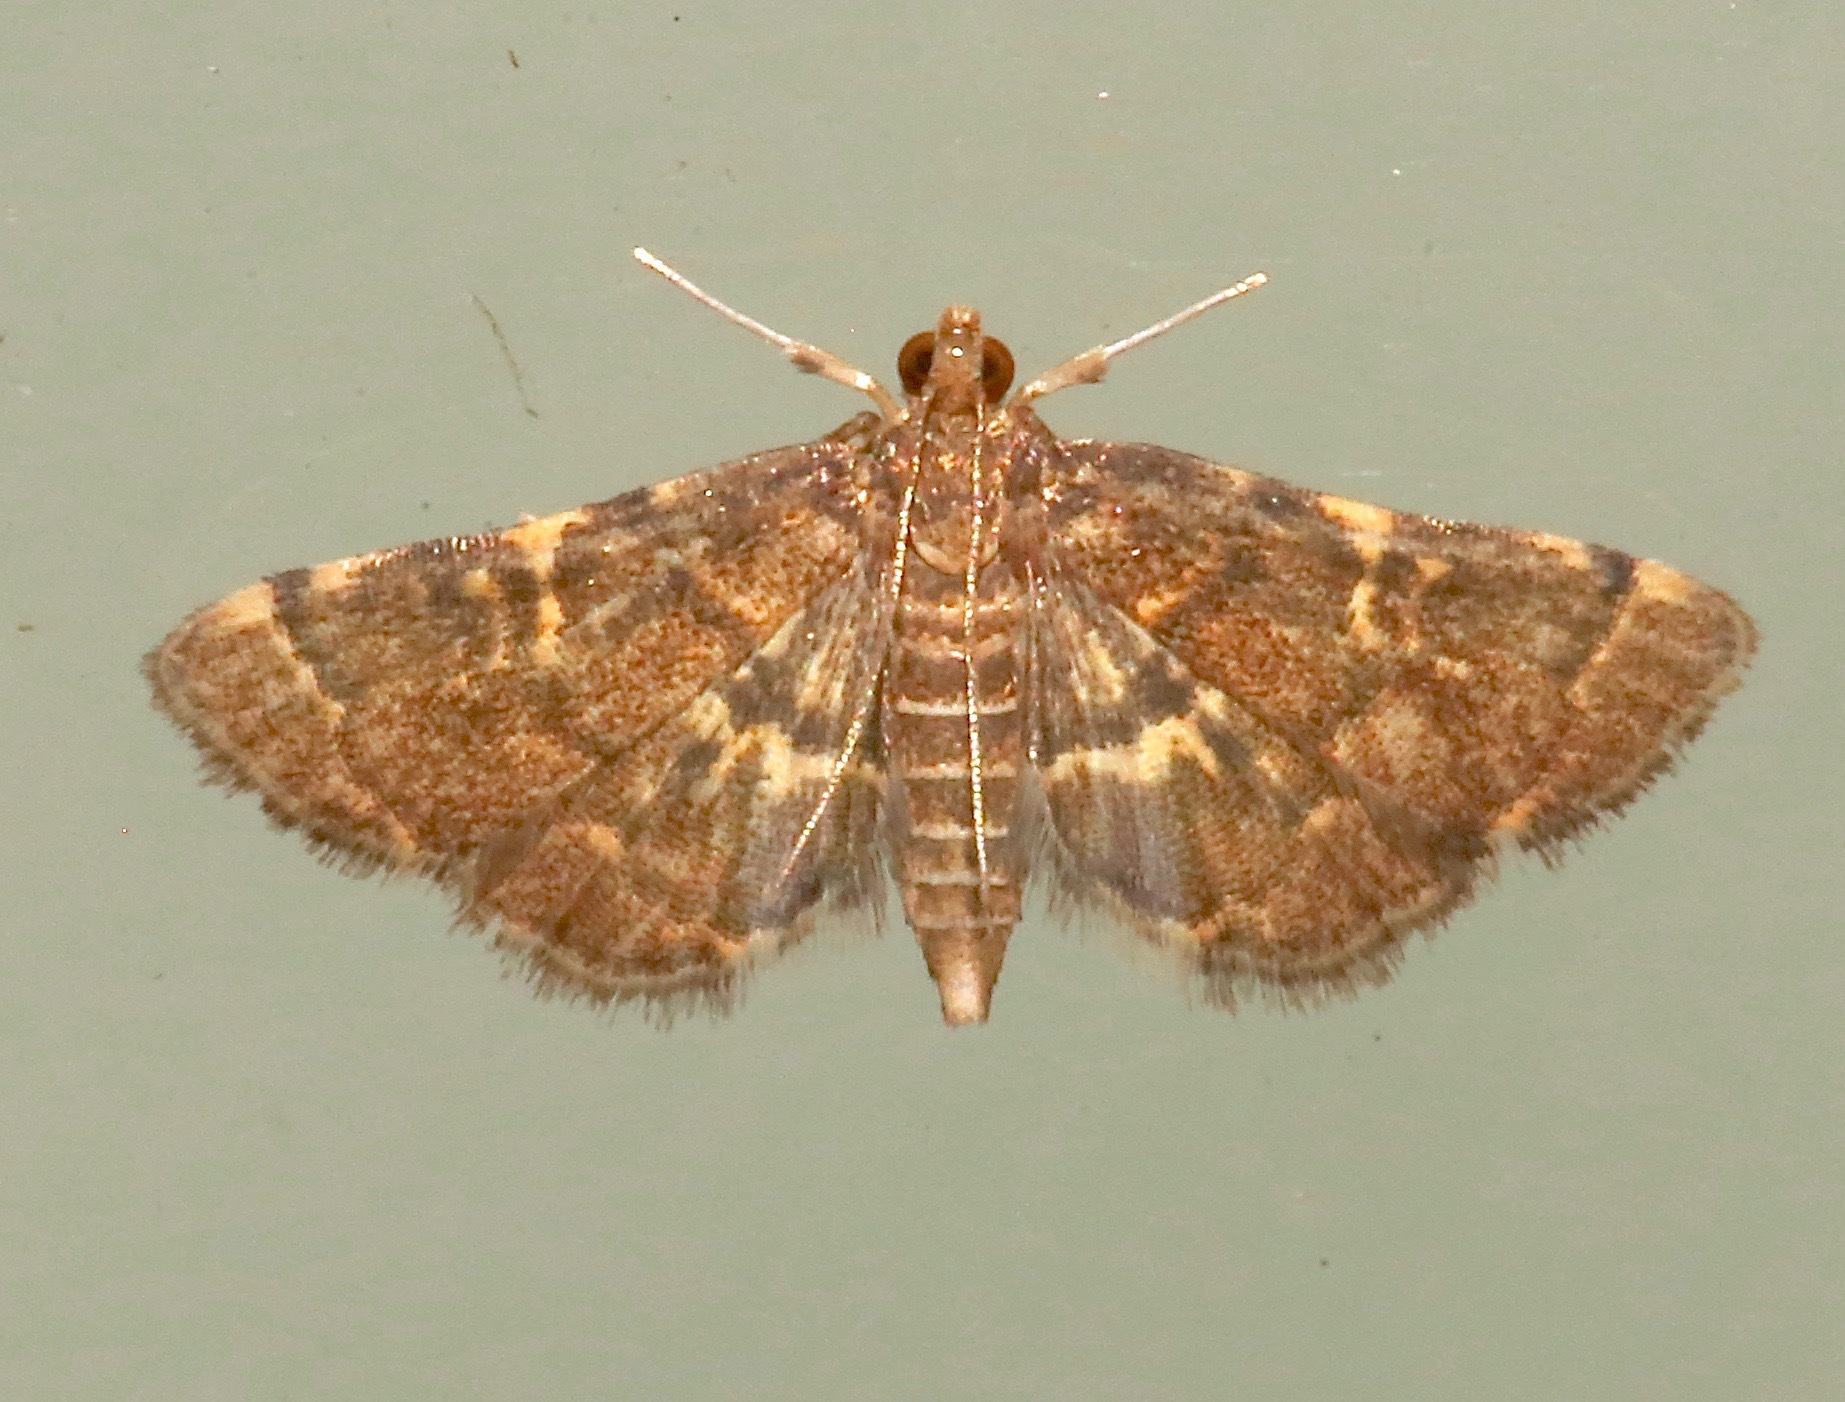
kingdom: Animalia
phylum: Arthropoda
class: Insecta
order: Lepidoptera
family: Crambidae
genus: Anageshna
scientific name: Anageshna primordialis
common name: Yellow-spotted webworm moth
